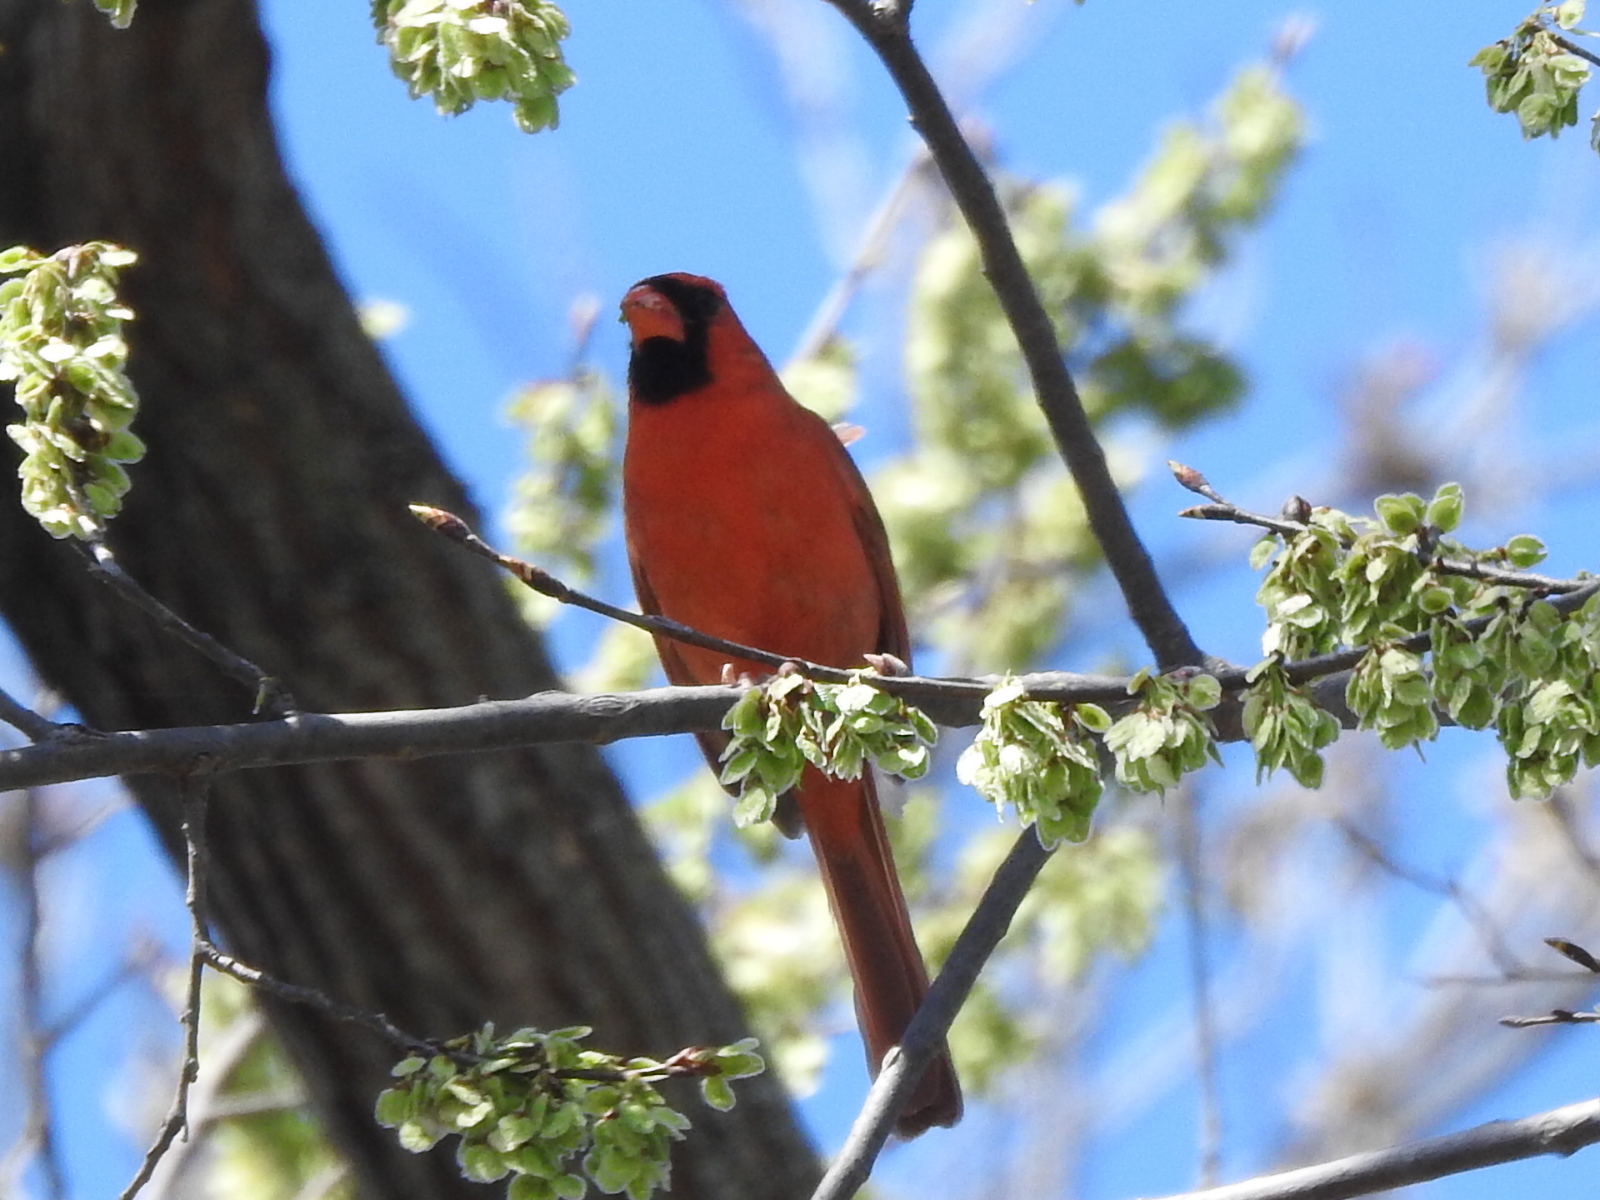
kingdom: Animalia
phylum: Chordata
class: Aves
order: Passeriformes
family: Cardinalidae
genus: Cardinalis
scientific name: Cardinalis cardinalis
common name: Northern cardinal
